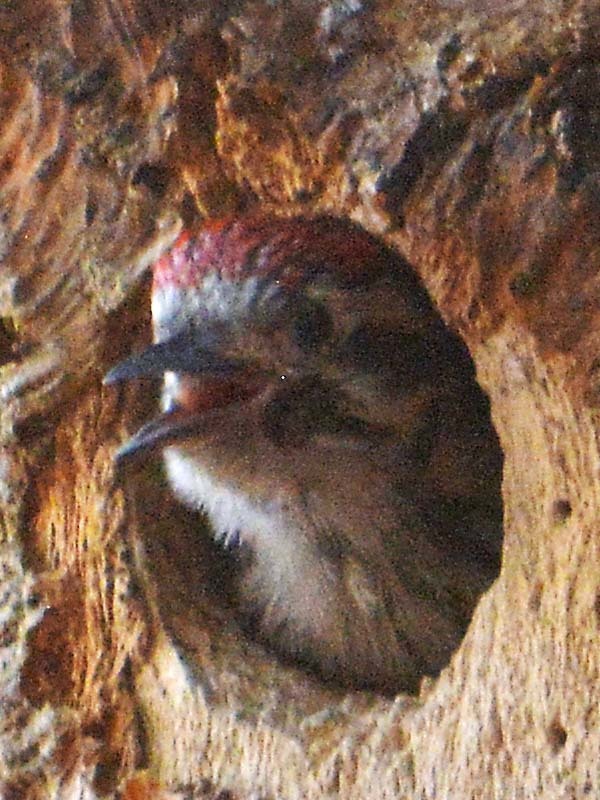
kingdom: Animalia
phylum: Chordata
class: Aves
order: Piciformes
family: Picidae
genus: Dryobates
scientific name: Dryobates scalaris
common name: Ladder-backed woodpecker
